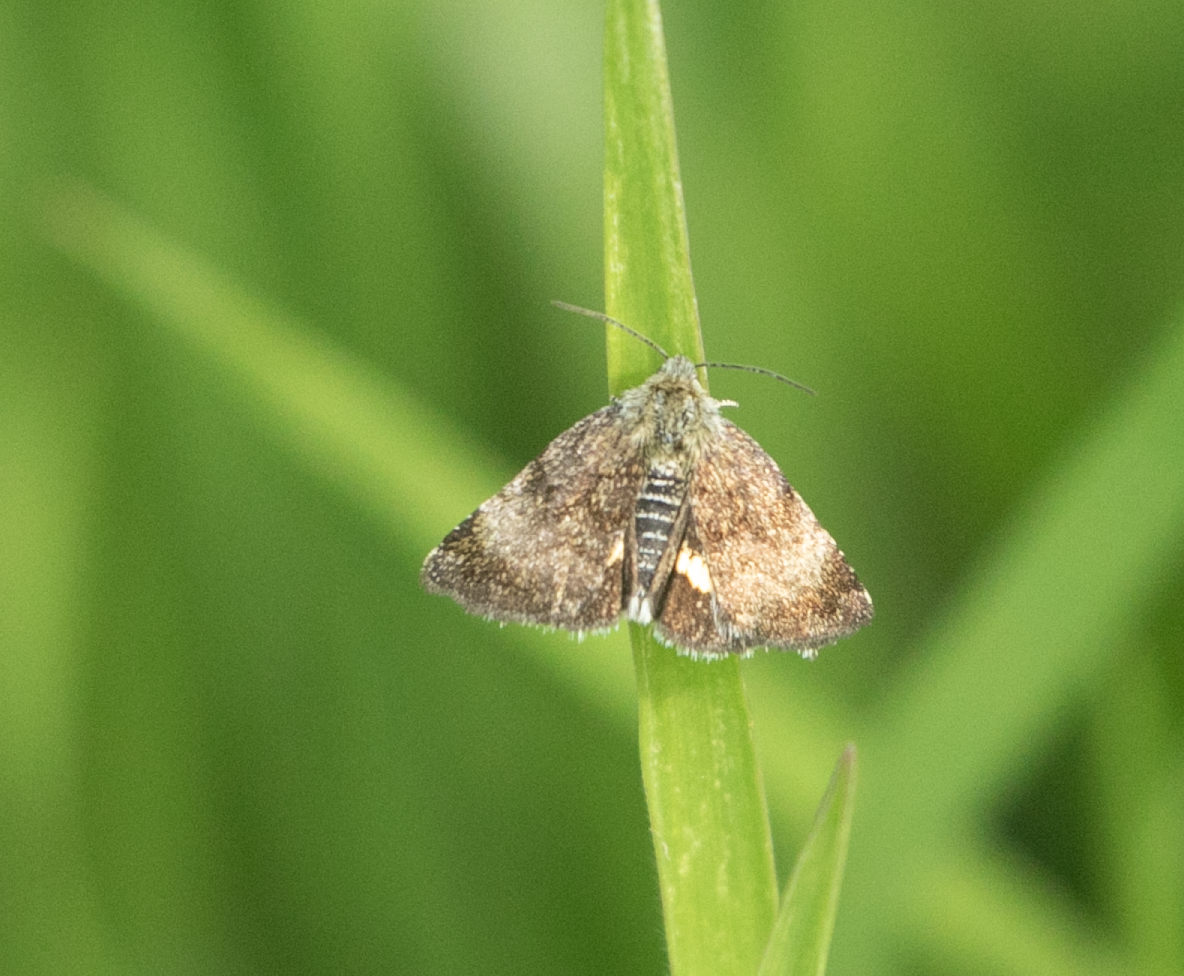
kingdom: Animalia
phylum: Arthropoda
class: Insecta
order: Lepidoptera
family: Noctuidae
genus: Panemeria
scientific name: Panemeria tenebrata
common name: Small yellow underwing
